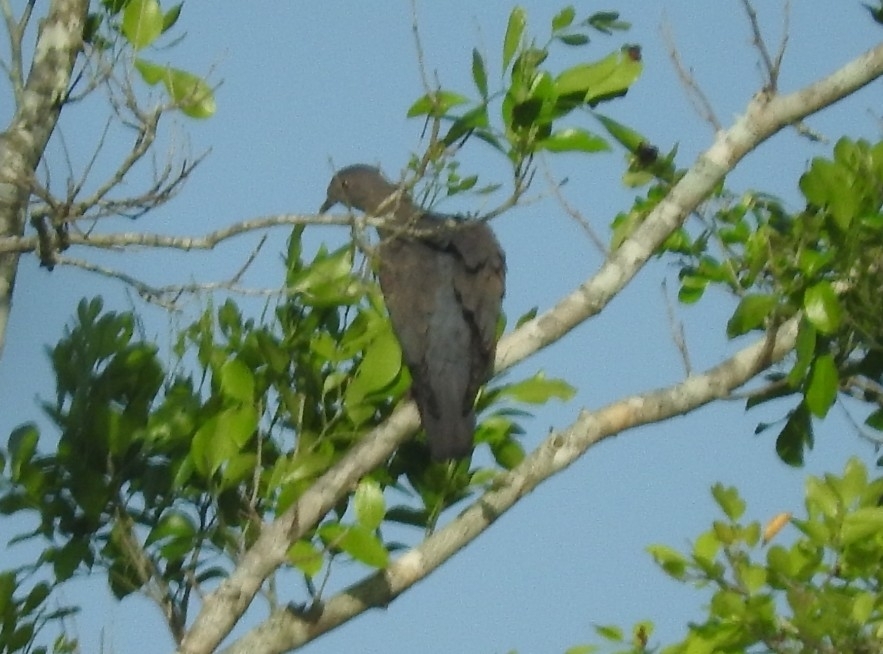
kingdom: Animalia
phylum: Chordata
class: Aves
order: Columbiformes
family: Columbidae
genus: Patagioenas
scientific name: Patagioenas flavirostris
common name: Red-billed pigeon
